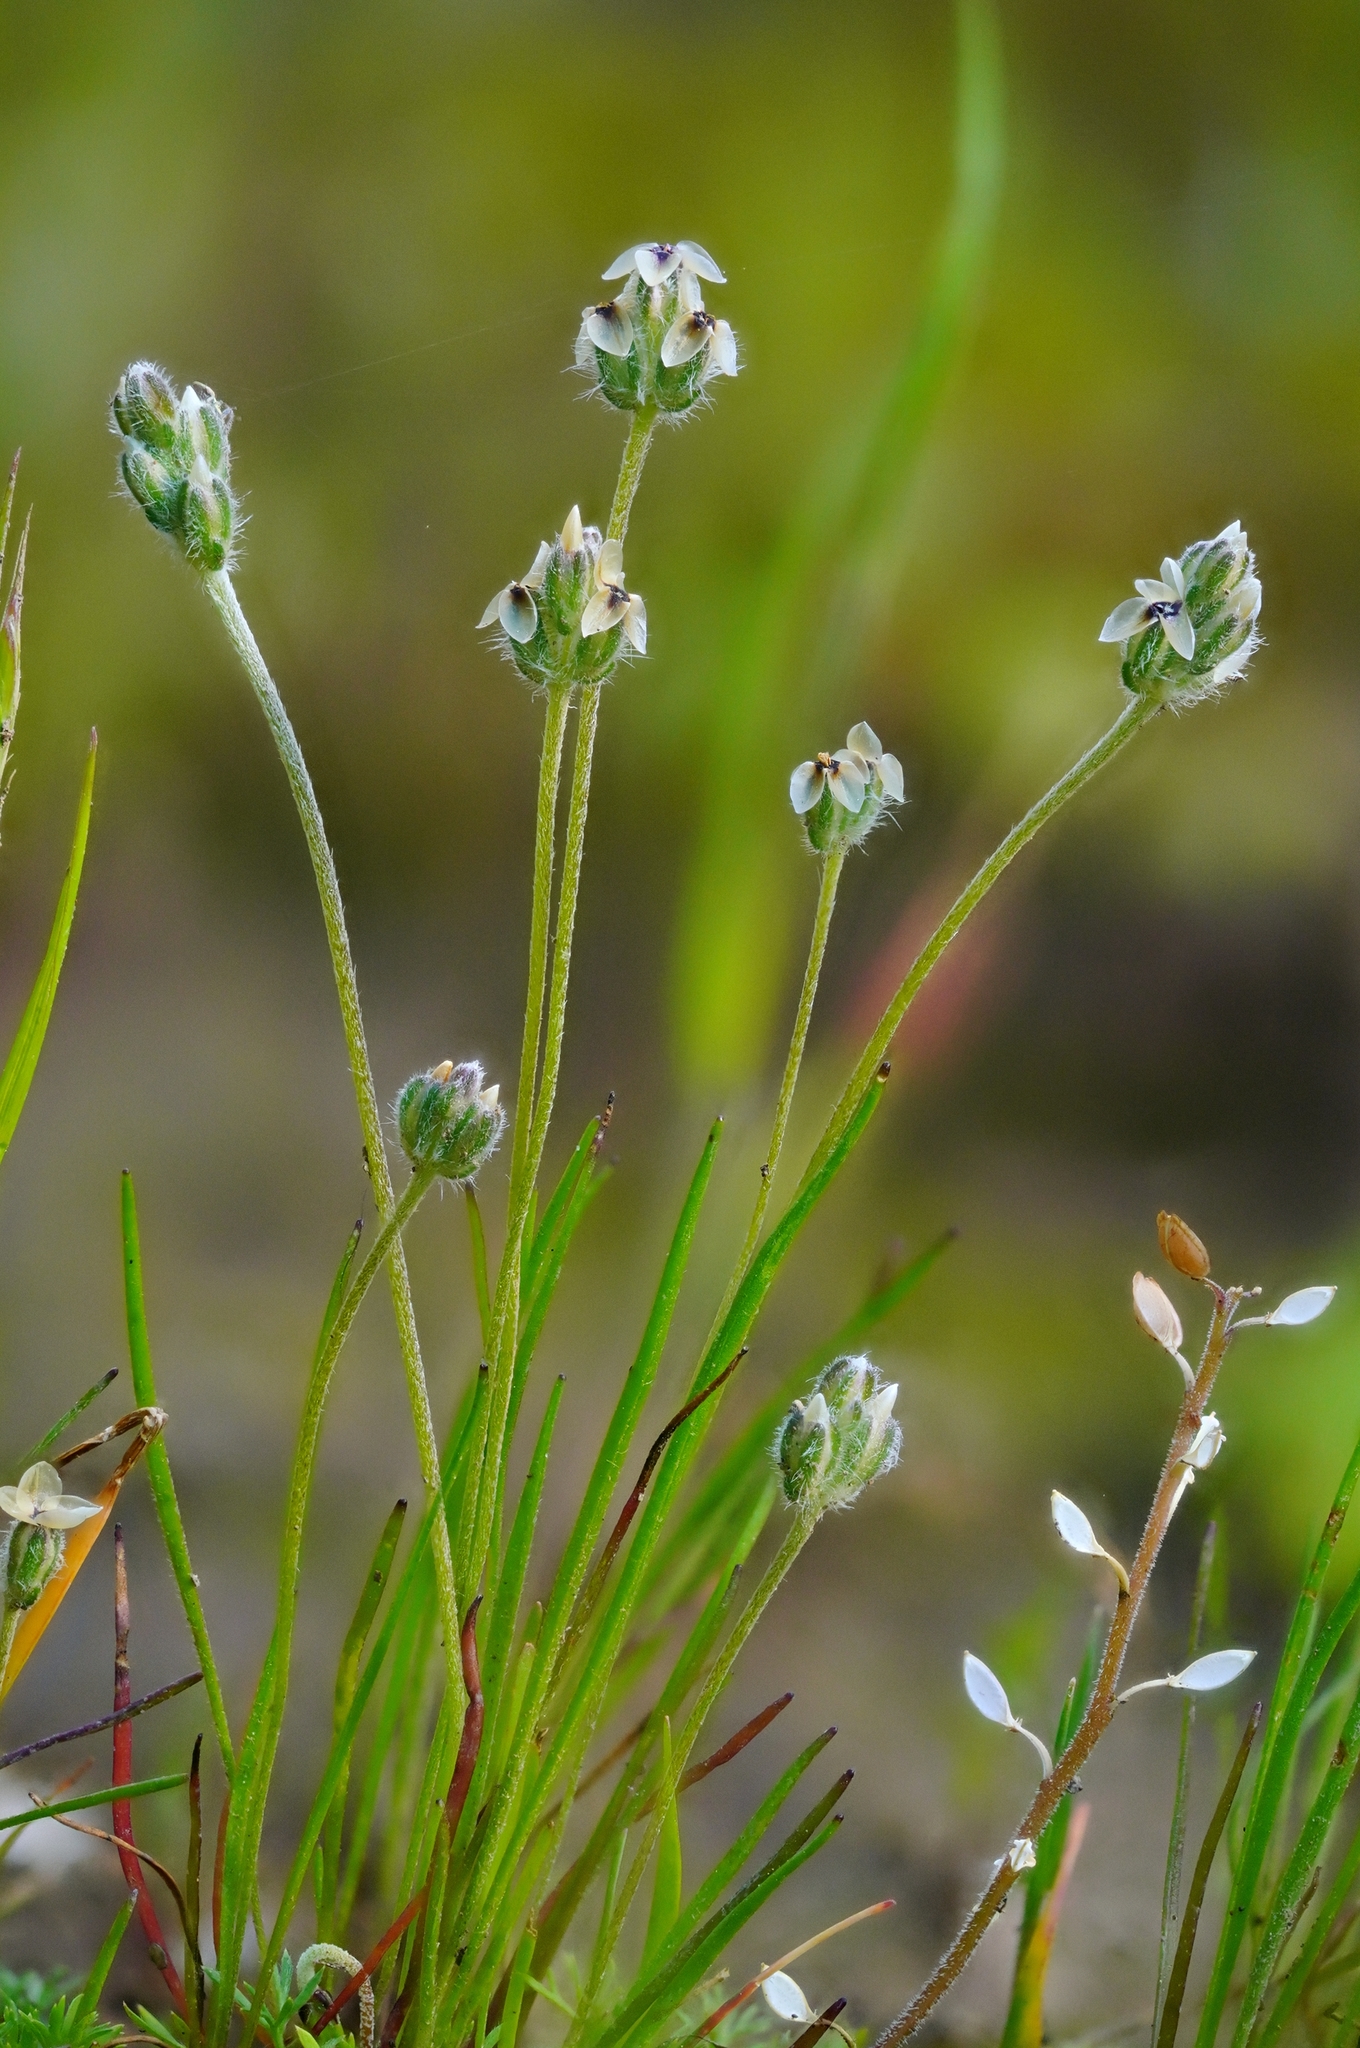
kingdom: Plantae
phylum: Tracheophyta
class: Magnoliopsida
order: Lamiales
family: Plantaginaceae
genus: Plantago
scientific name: Plantago erecta
